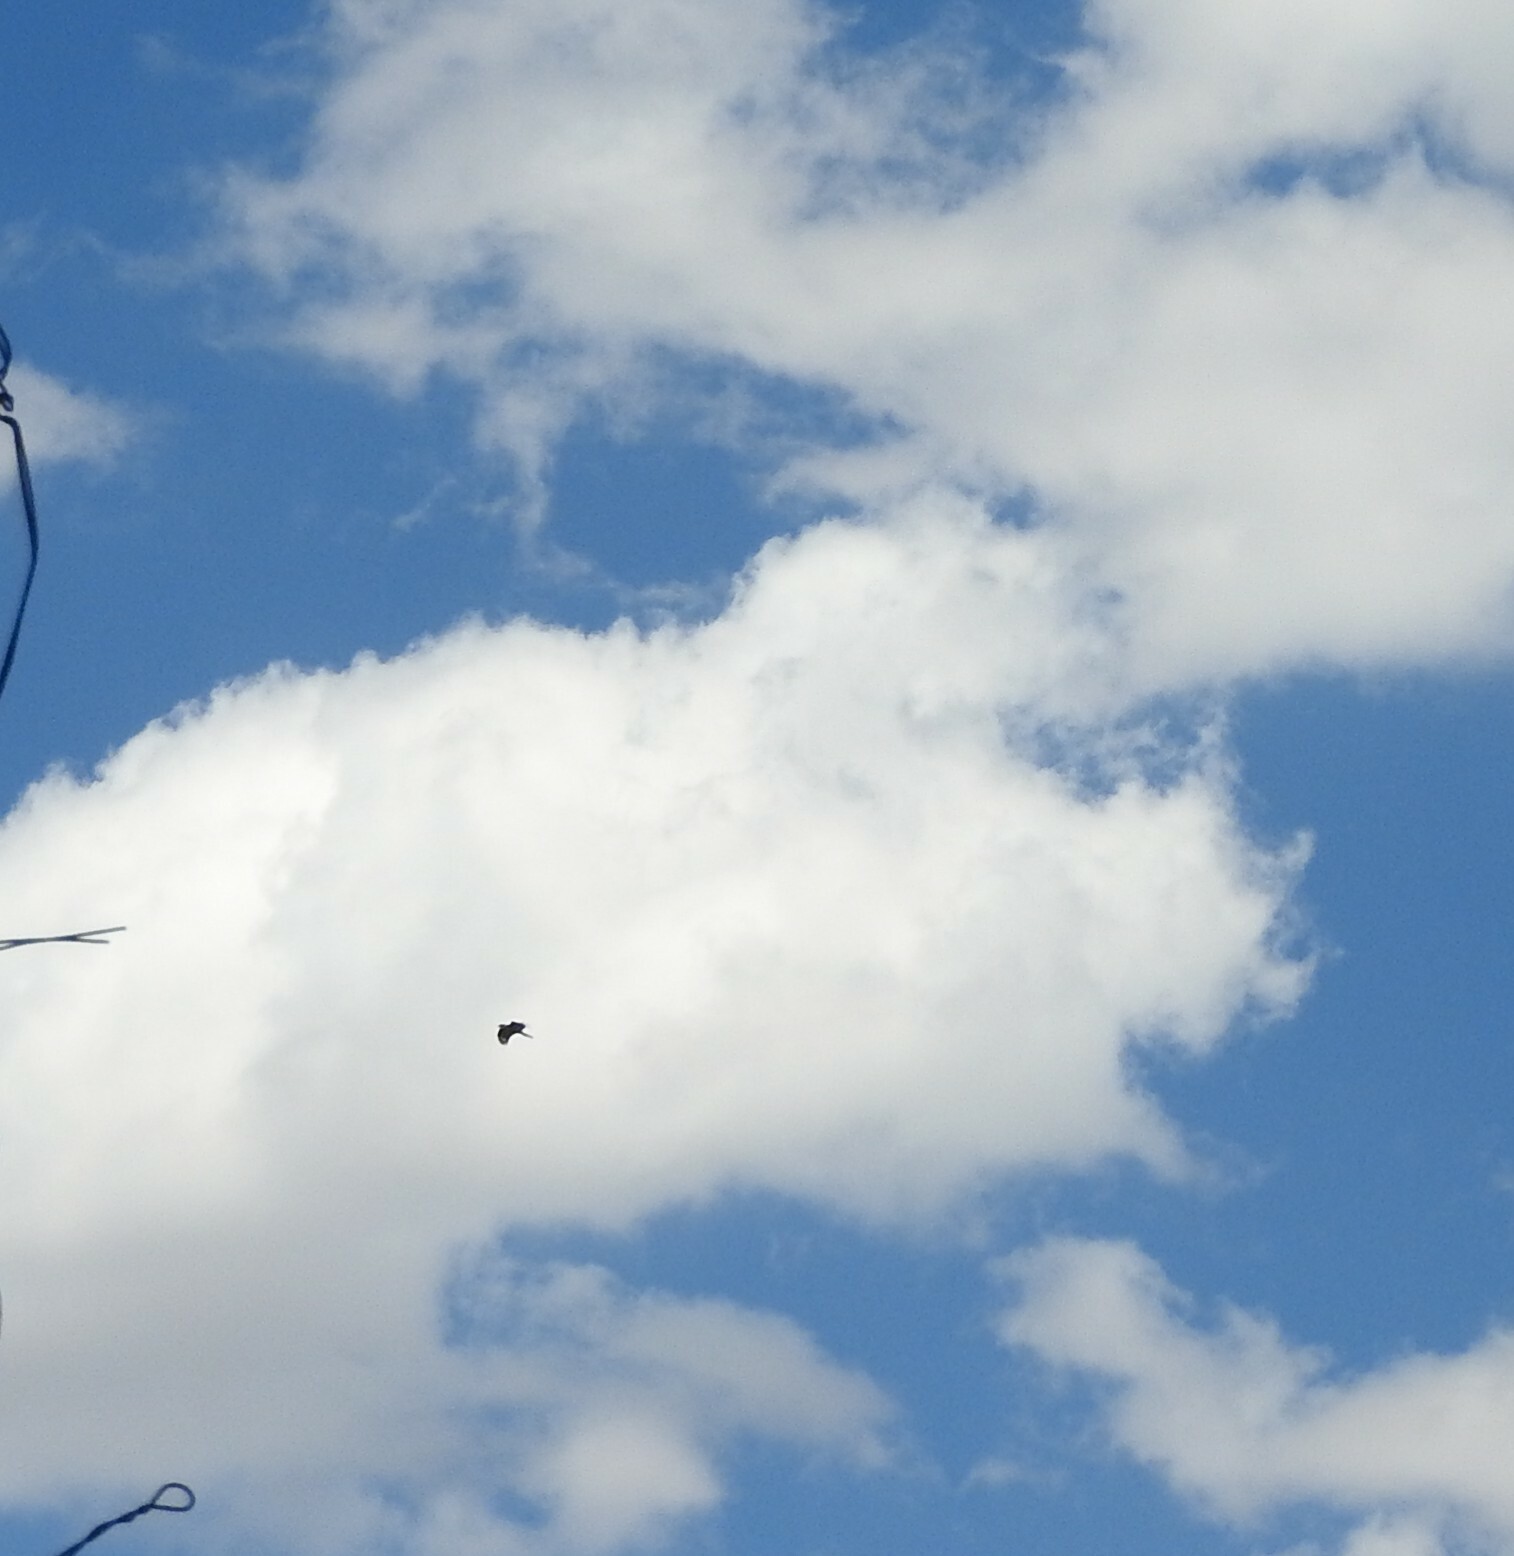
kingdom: Animalia
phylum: Chordata
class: Aves
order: Falconiformes
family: Falconidae
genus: Caracara
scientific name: Caracara plancus
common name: Southern caracara
